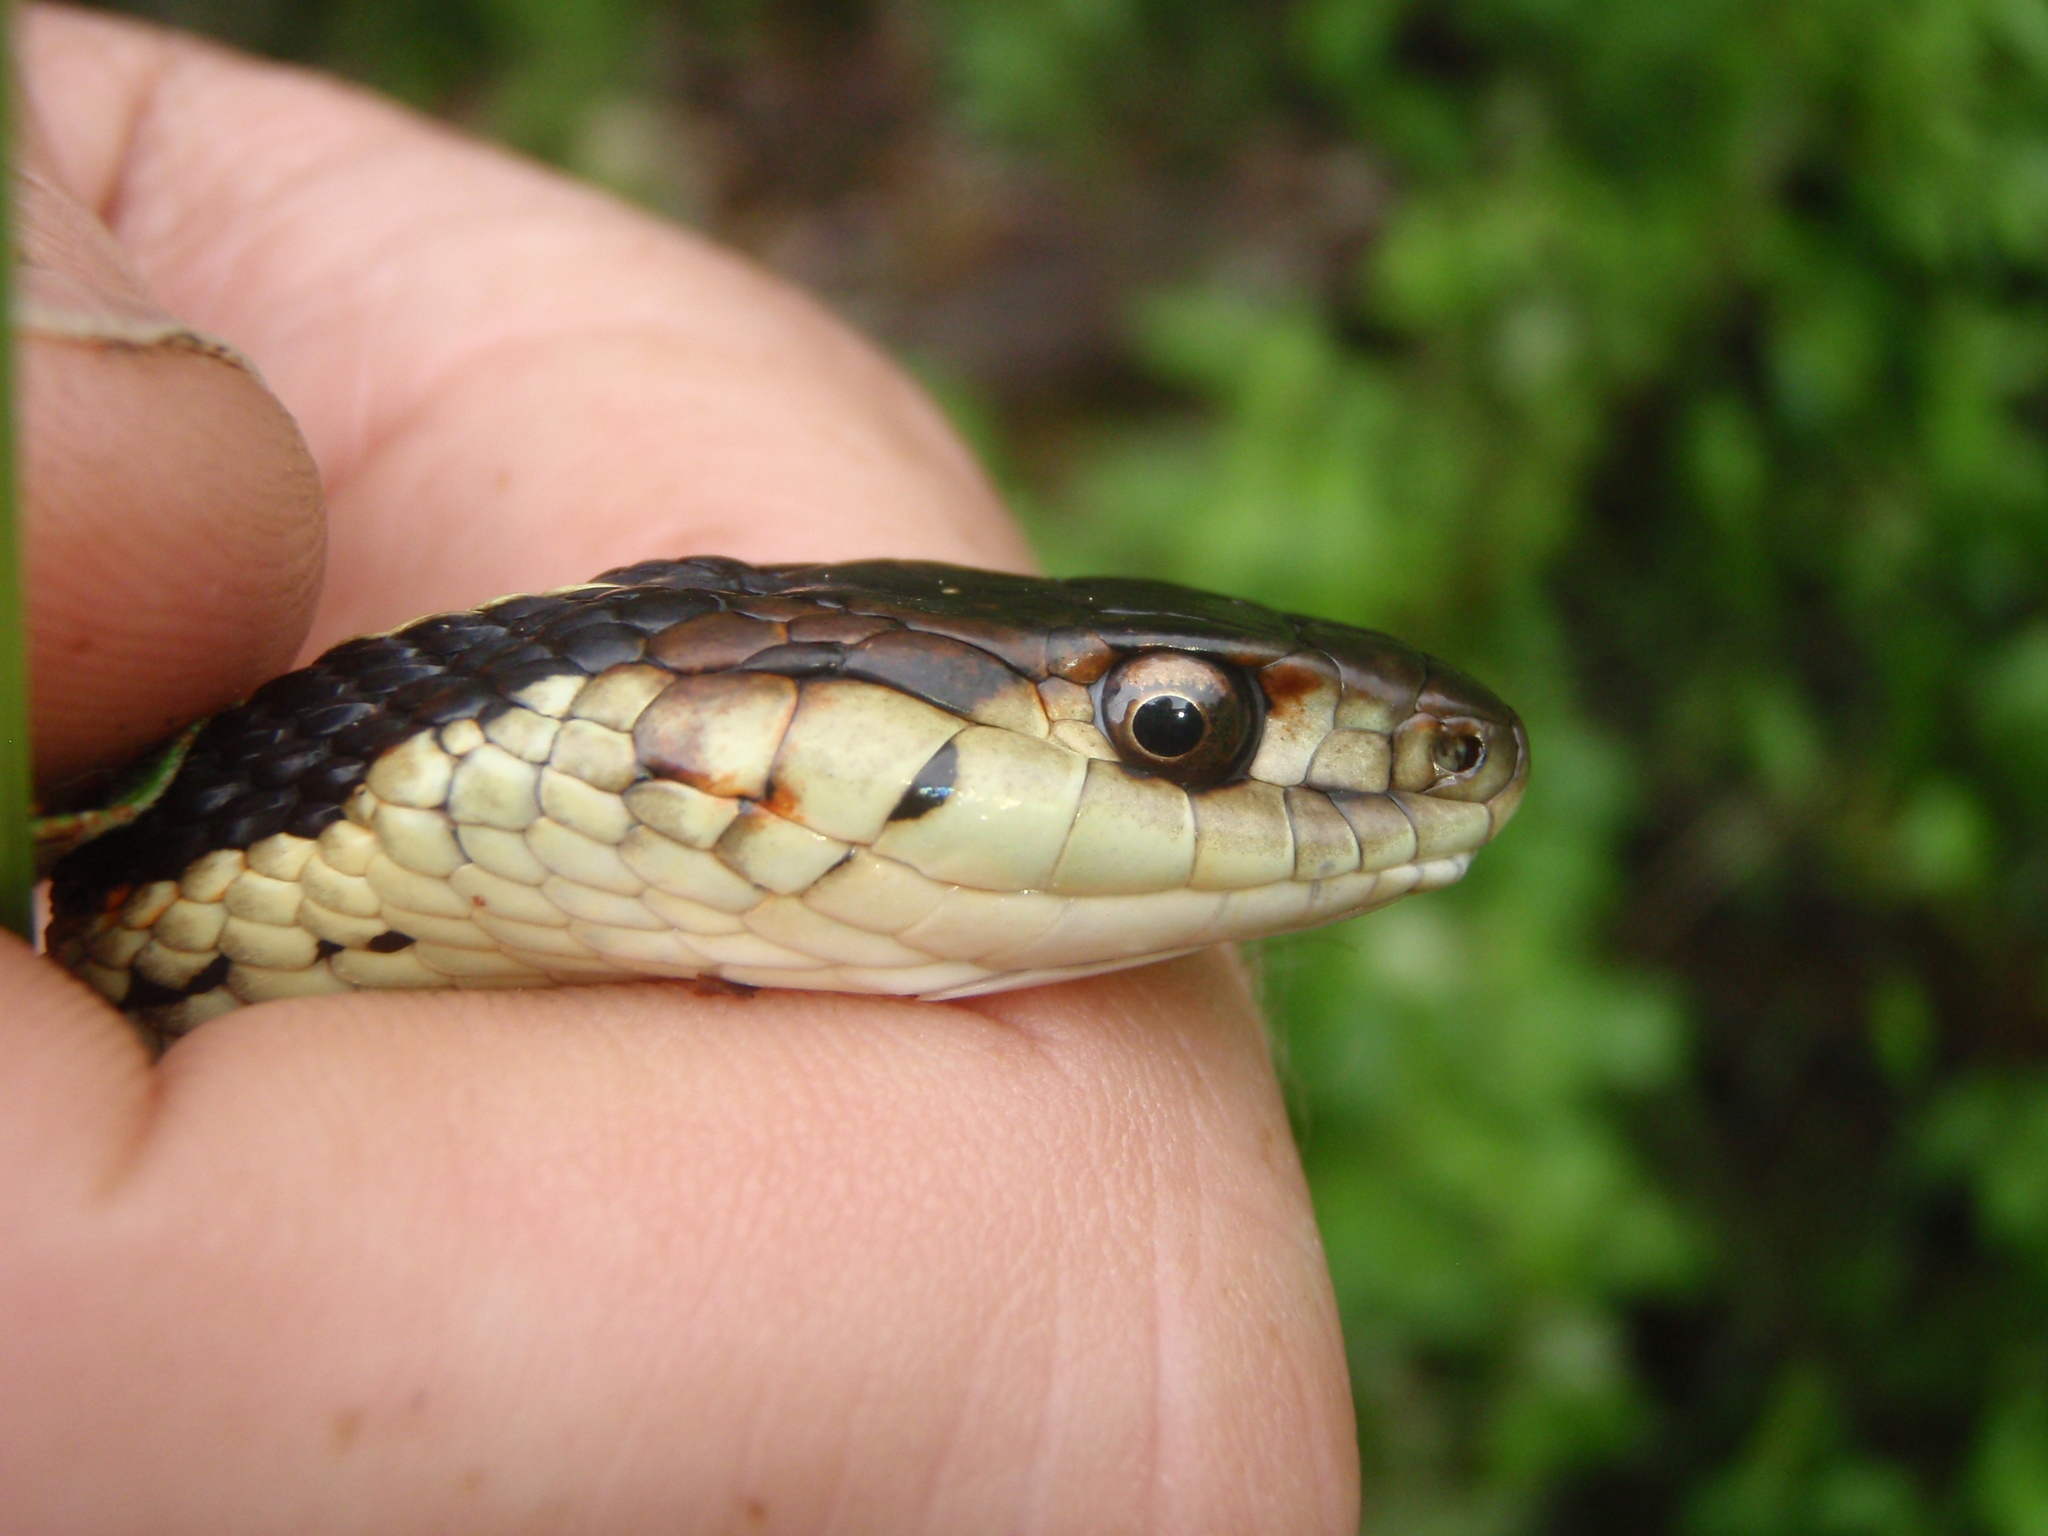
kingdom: Animalia
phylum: Chordata
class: Squamata
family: Colubridae
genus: Thamnophis
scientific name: Thamnophis sirtalis
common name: Common garter snake
